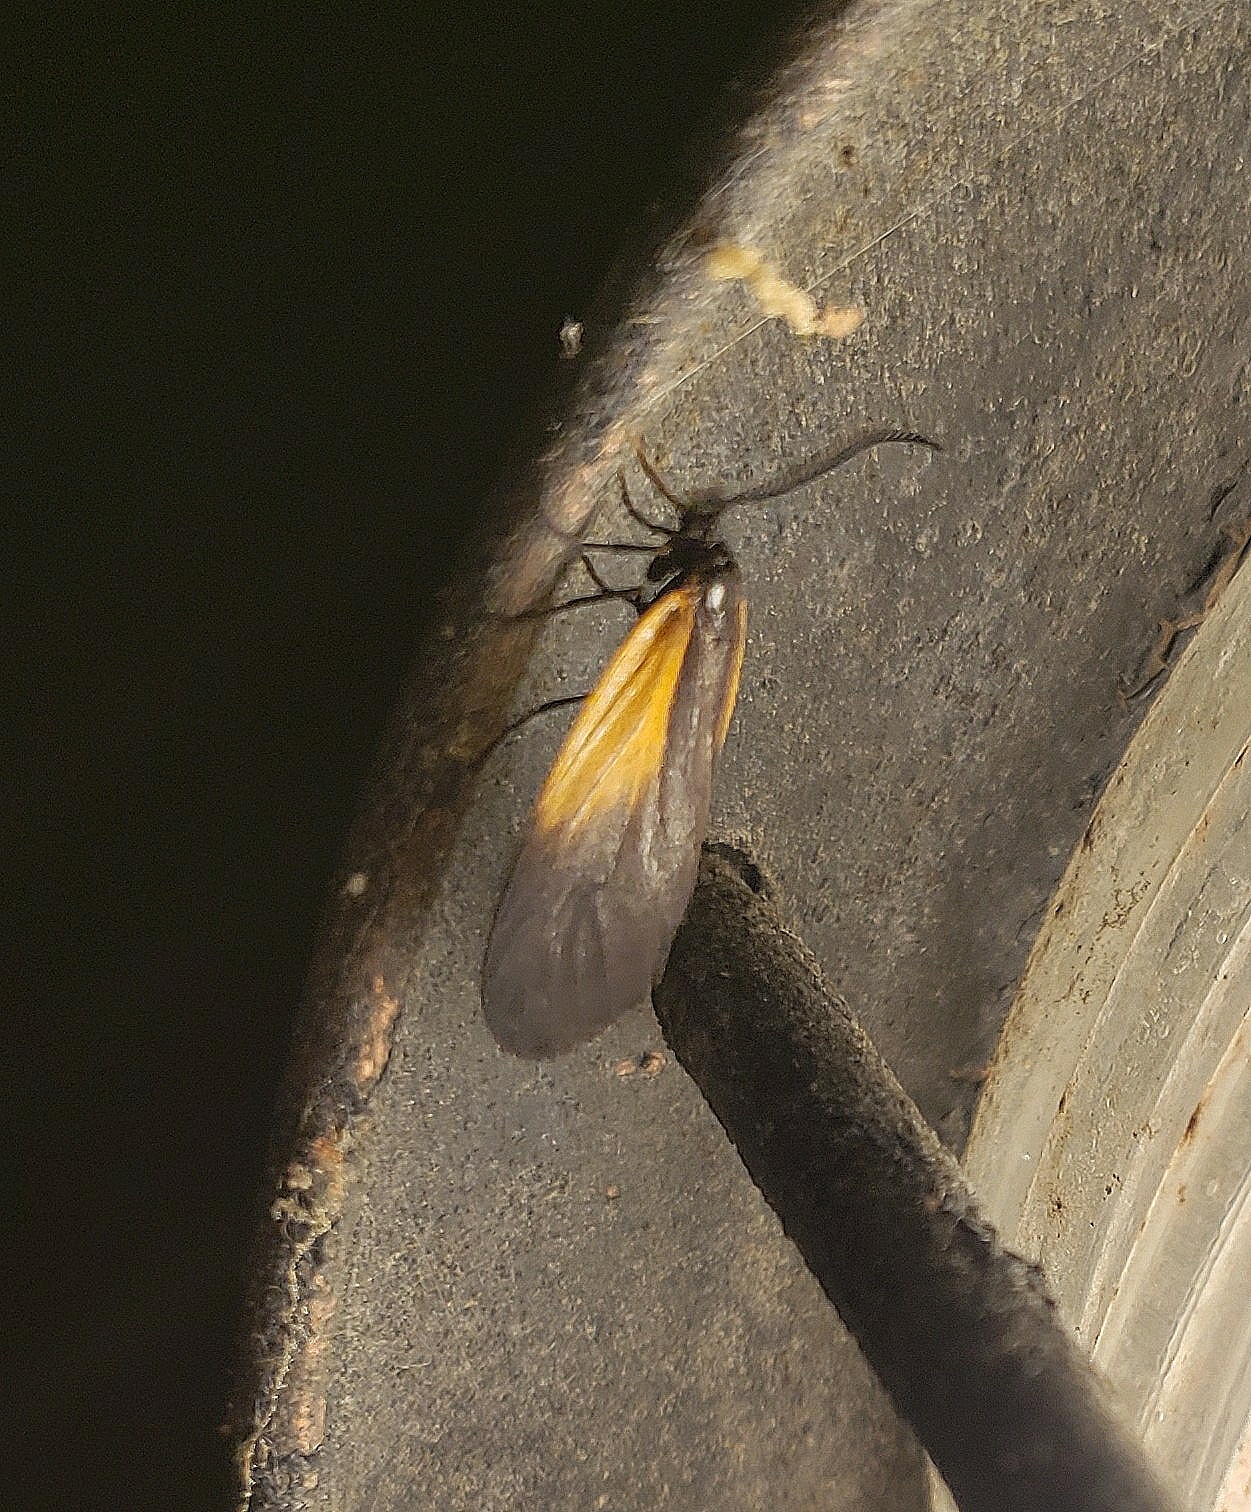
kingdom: Animalia
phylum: Arthropoda
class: Insecta
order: Lepidoptera
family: Zygaenidae
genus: Malthaca
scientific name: Malthaca dimidiata
